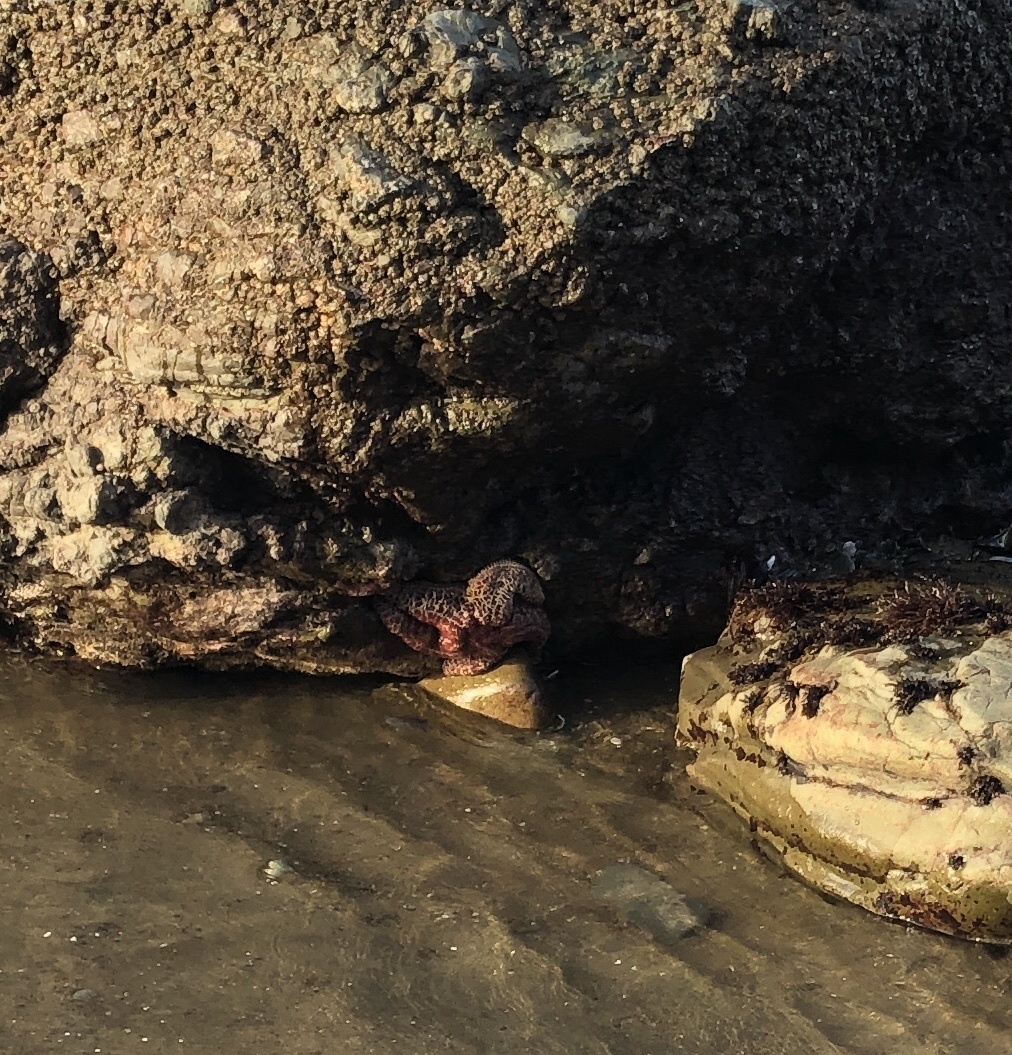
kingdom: Animalia
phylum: Echinodermata
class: Asteroidea
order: Forcipulatida
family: Asteriidae
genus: Pisaster
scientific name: Pisaster ochraceus
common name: Ochre stars
